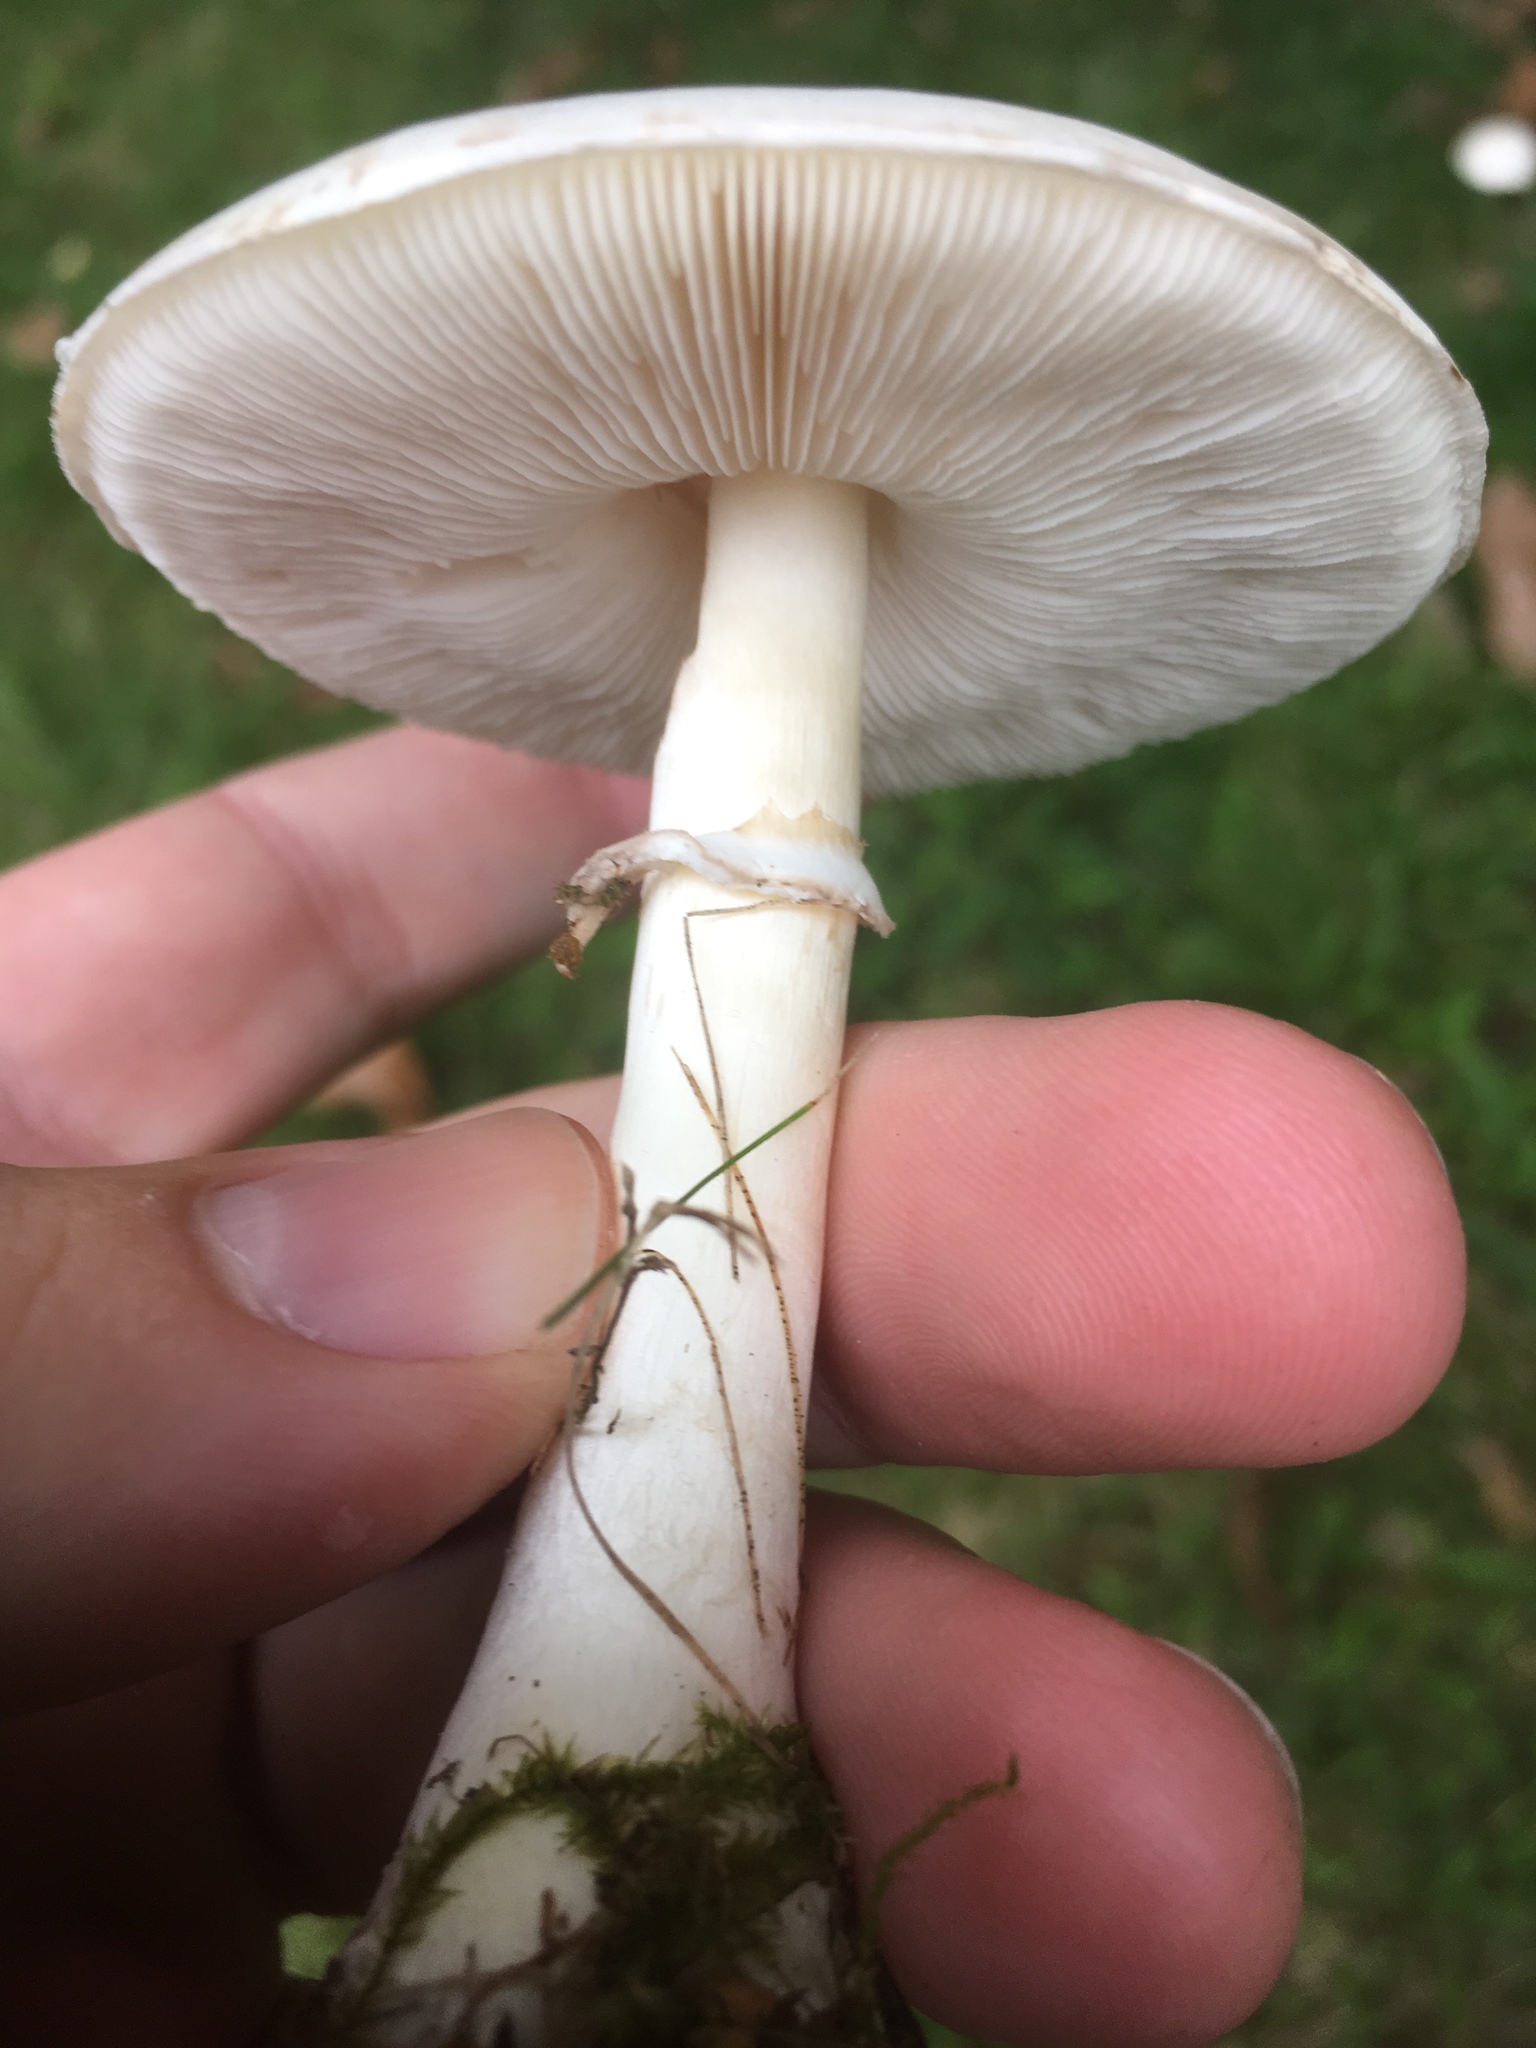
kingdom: Fungi
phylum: Basidiomycota
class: Agaricomycetes
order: Agaricales
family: Agaricaceae
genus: Leucoagaricus
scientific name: Leucoagaricus leucothites
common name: White dapperling
